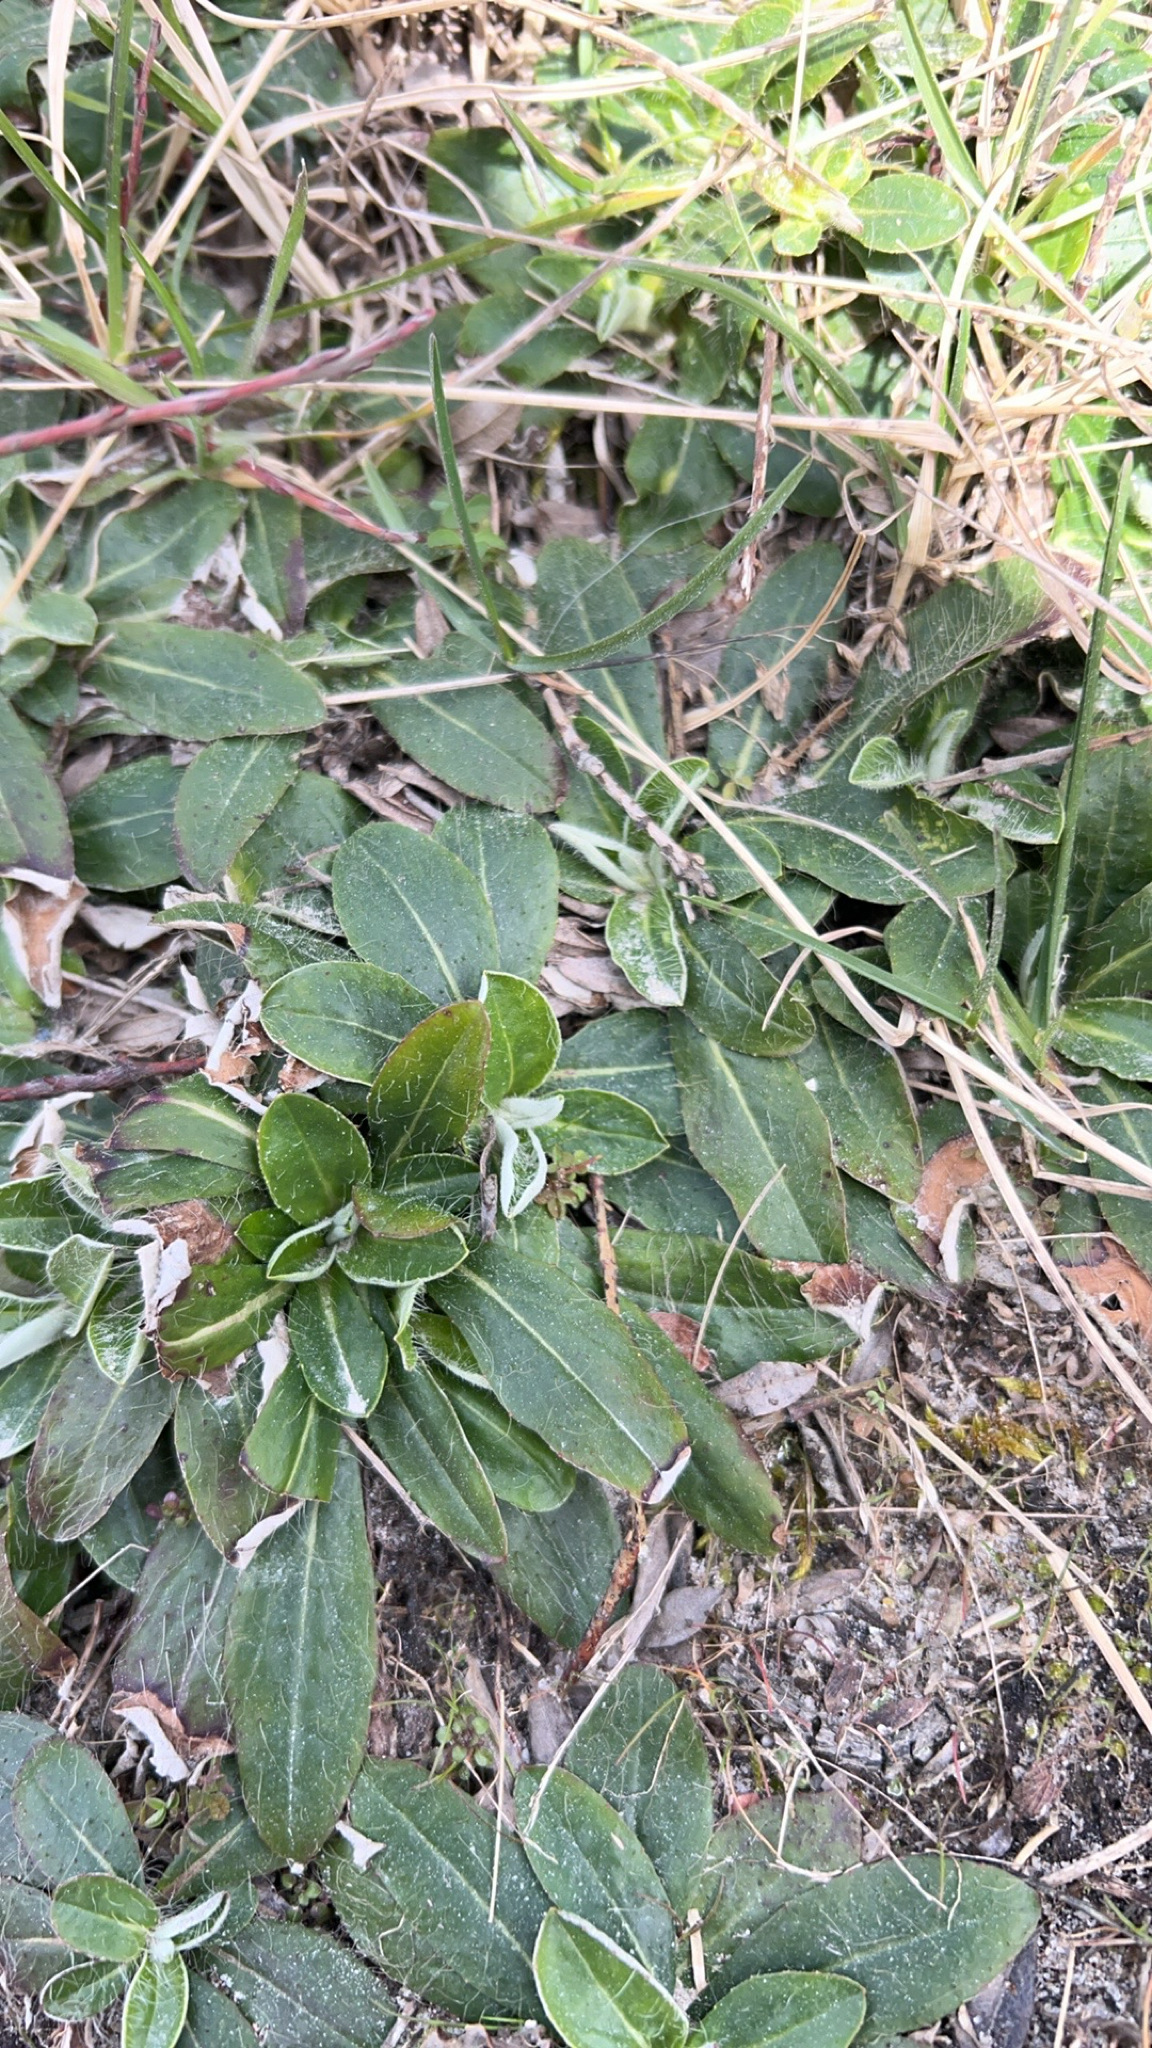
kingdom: Plantae
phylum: Tracheophyta
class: Magnoliopsida
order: Asterales
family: Asteraceae
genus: Pilosella
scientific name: Pilosella officinarum
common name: Mouse-ear hawkweed
